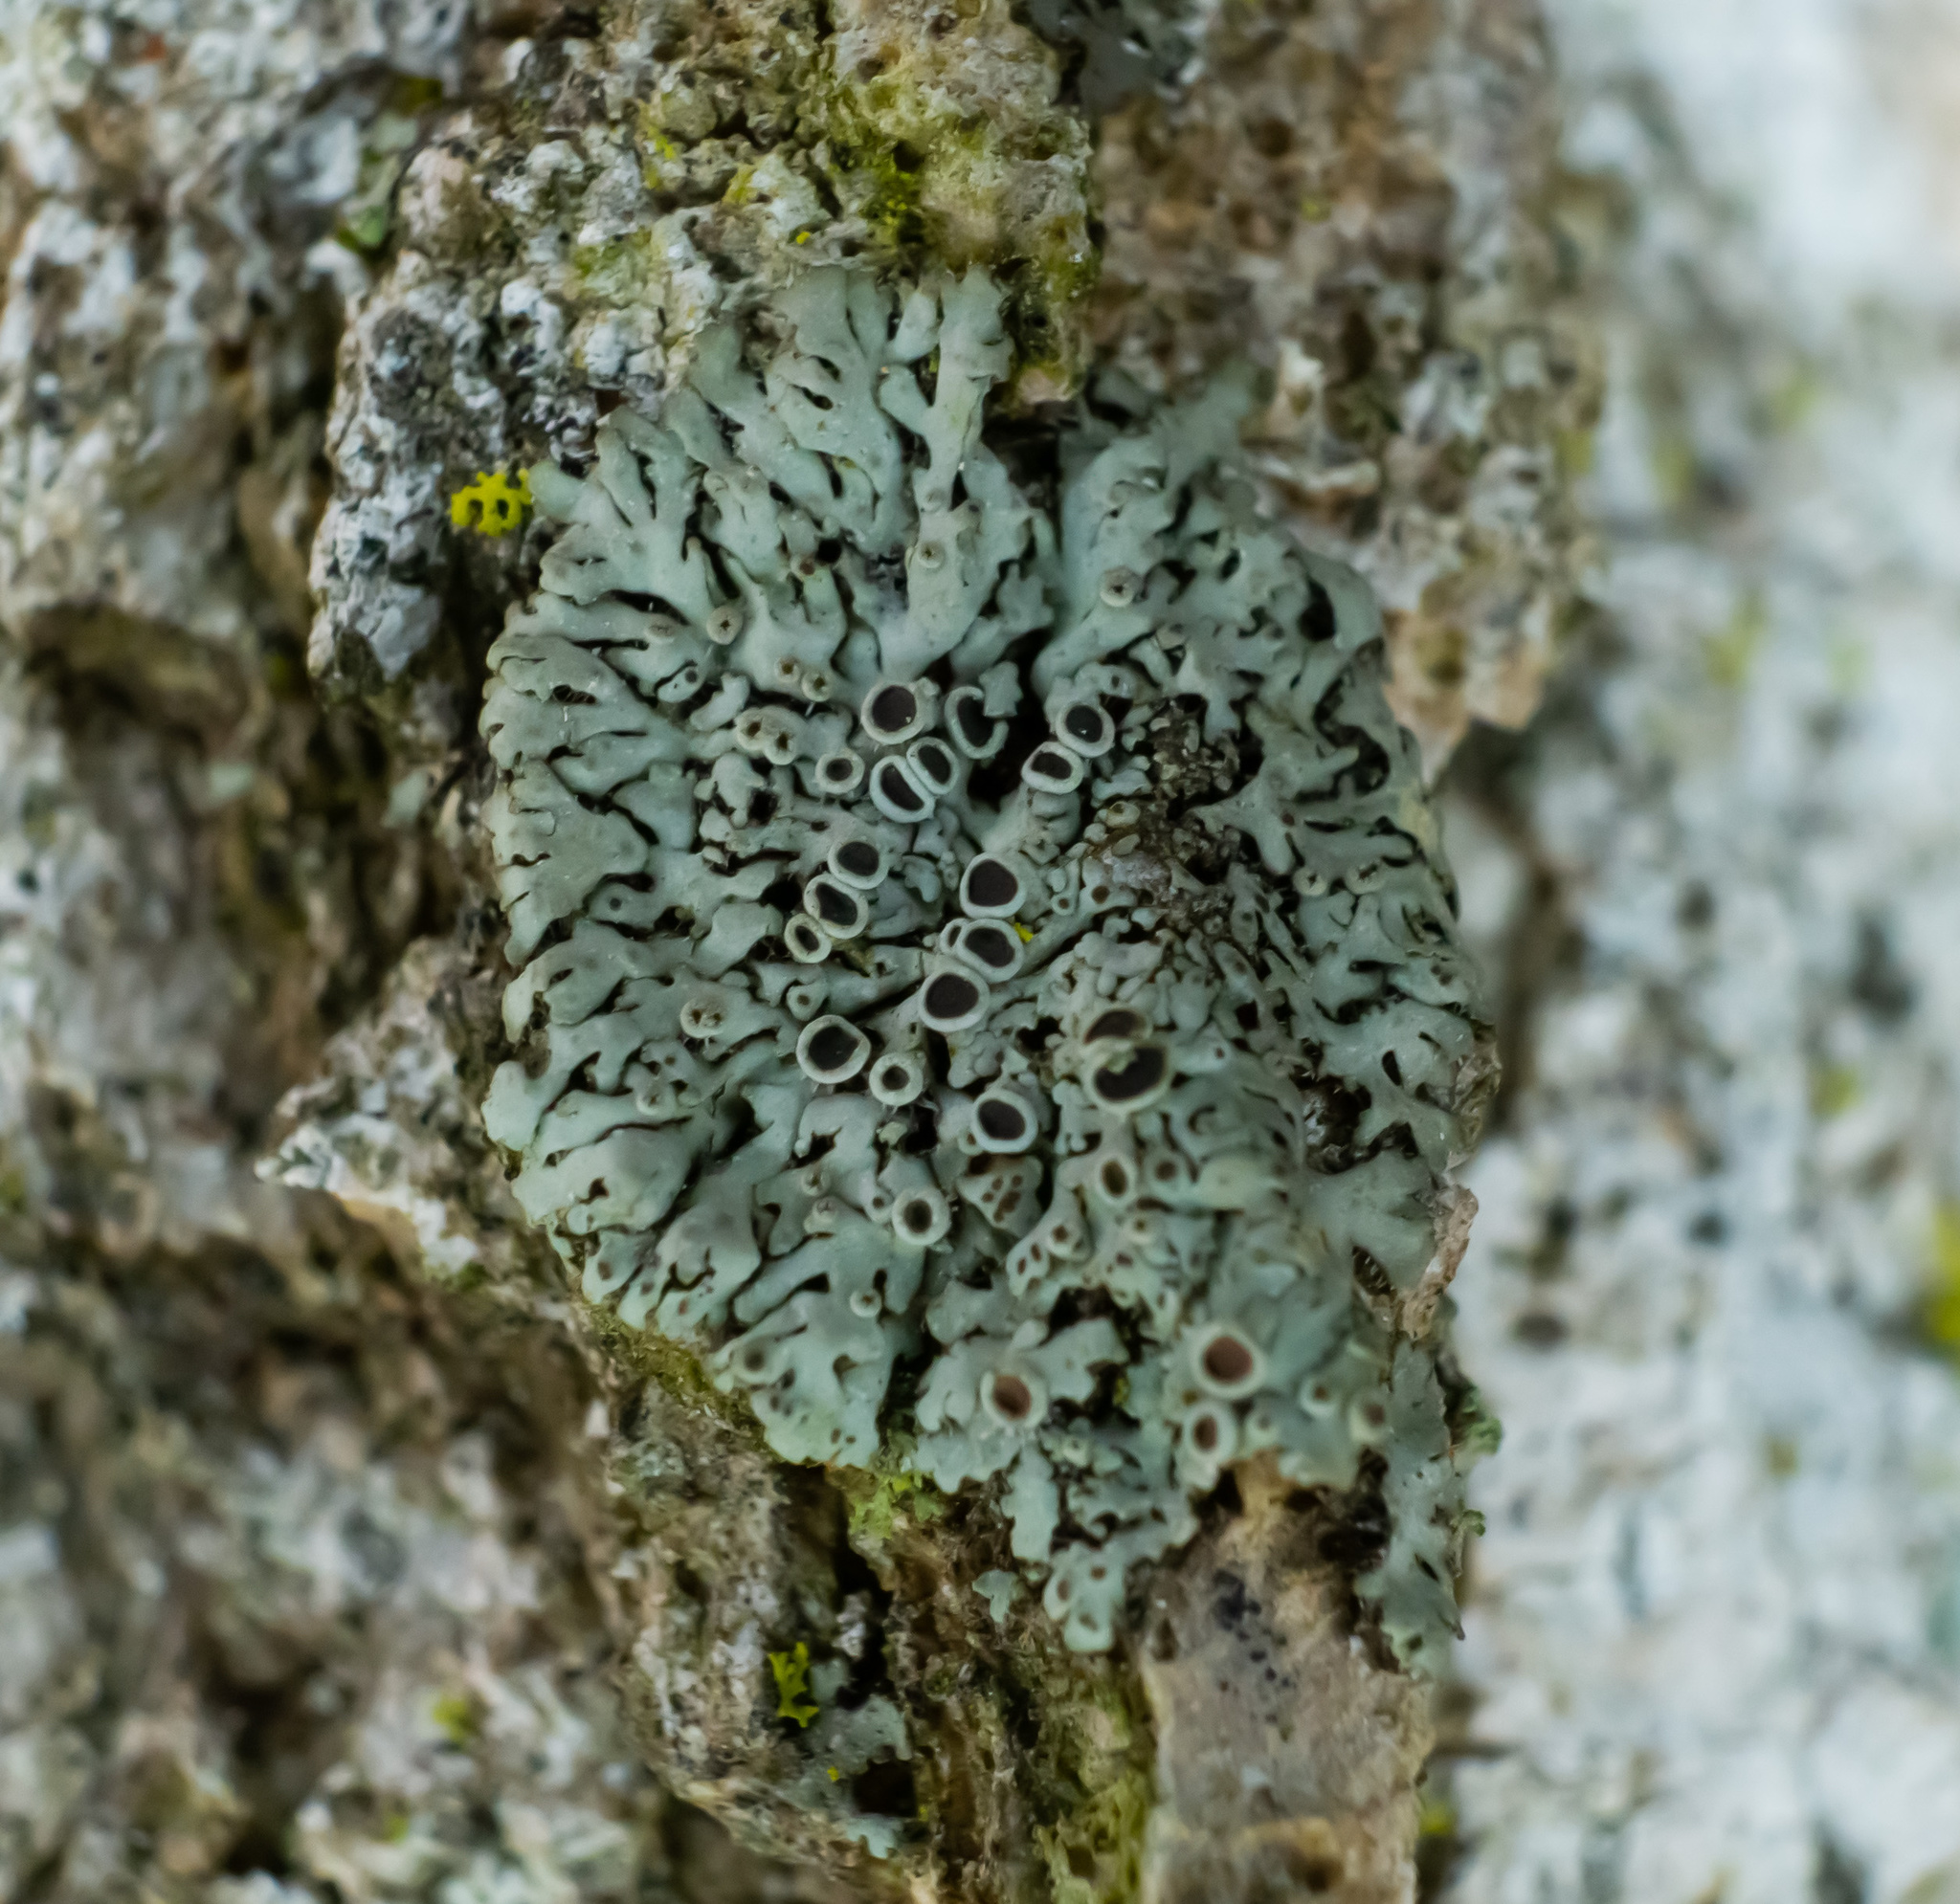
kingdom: Fungi
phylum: Ascomycota
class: Lecanoromycetes
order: Caliciales
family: Physciaceae
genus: Phaeophyscia
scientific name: Phaeophyscia ciliata
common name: Smooth shadow lichen
